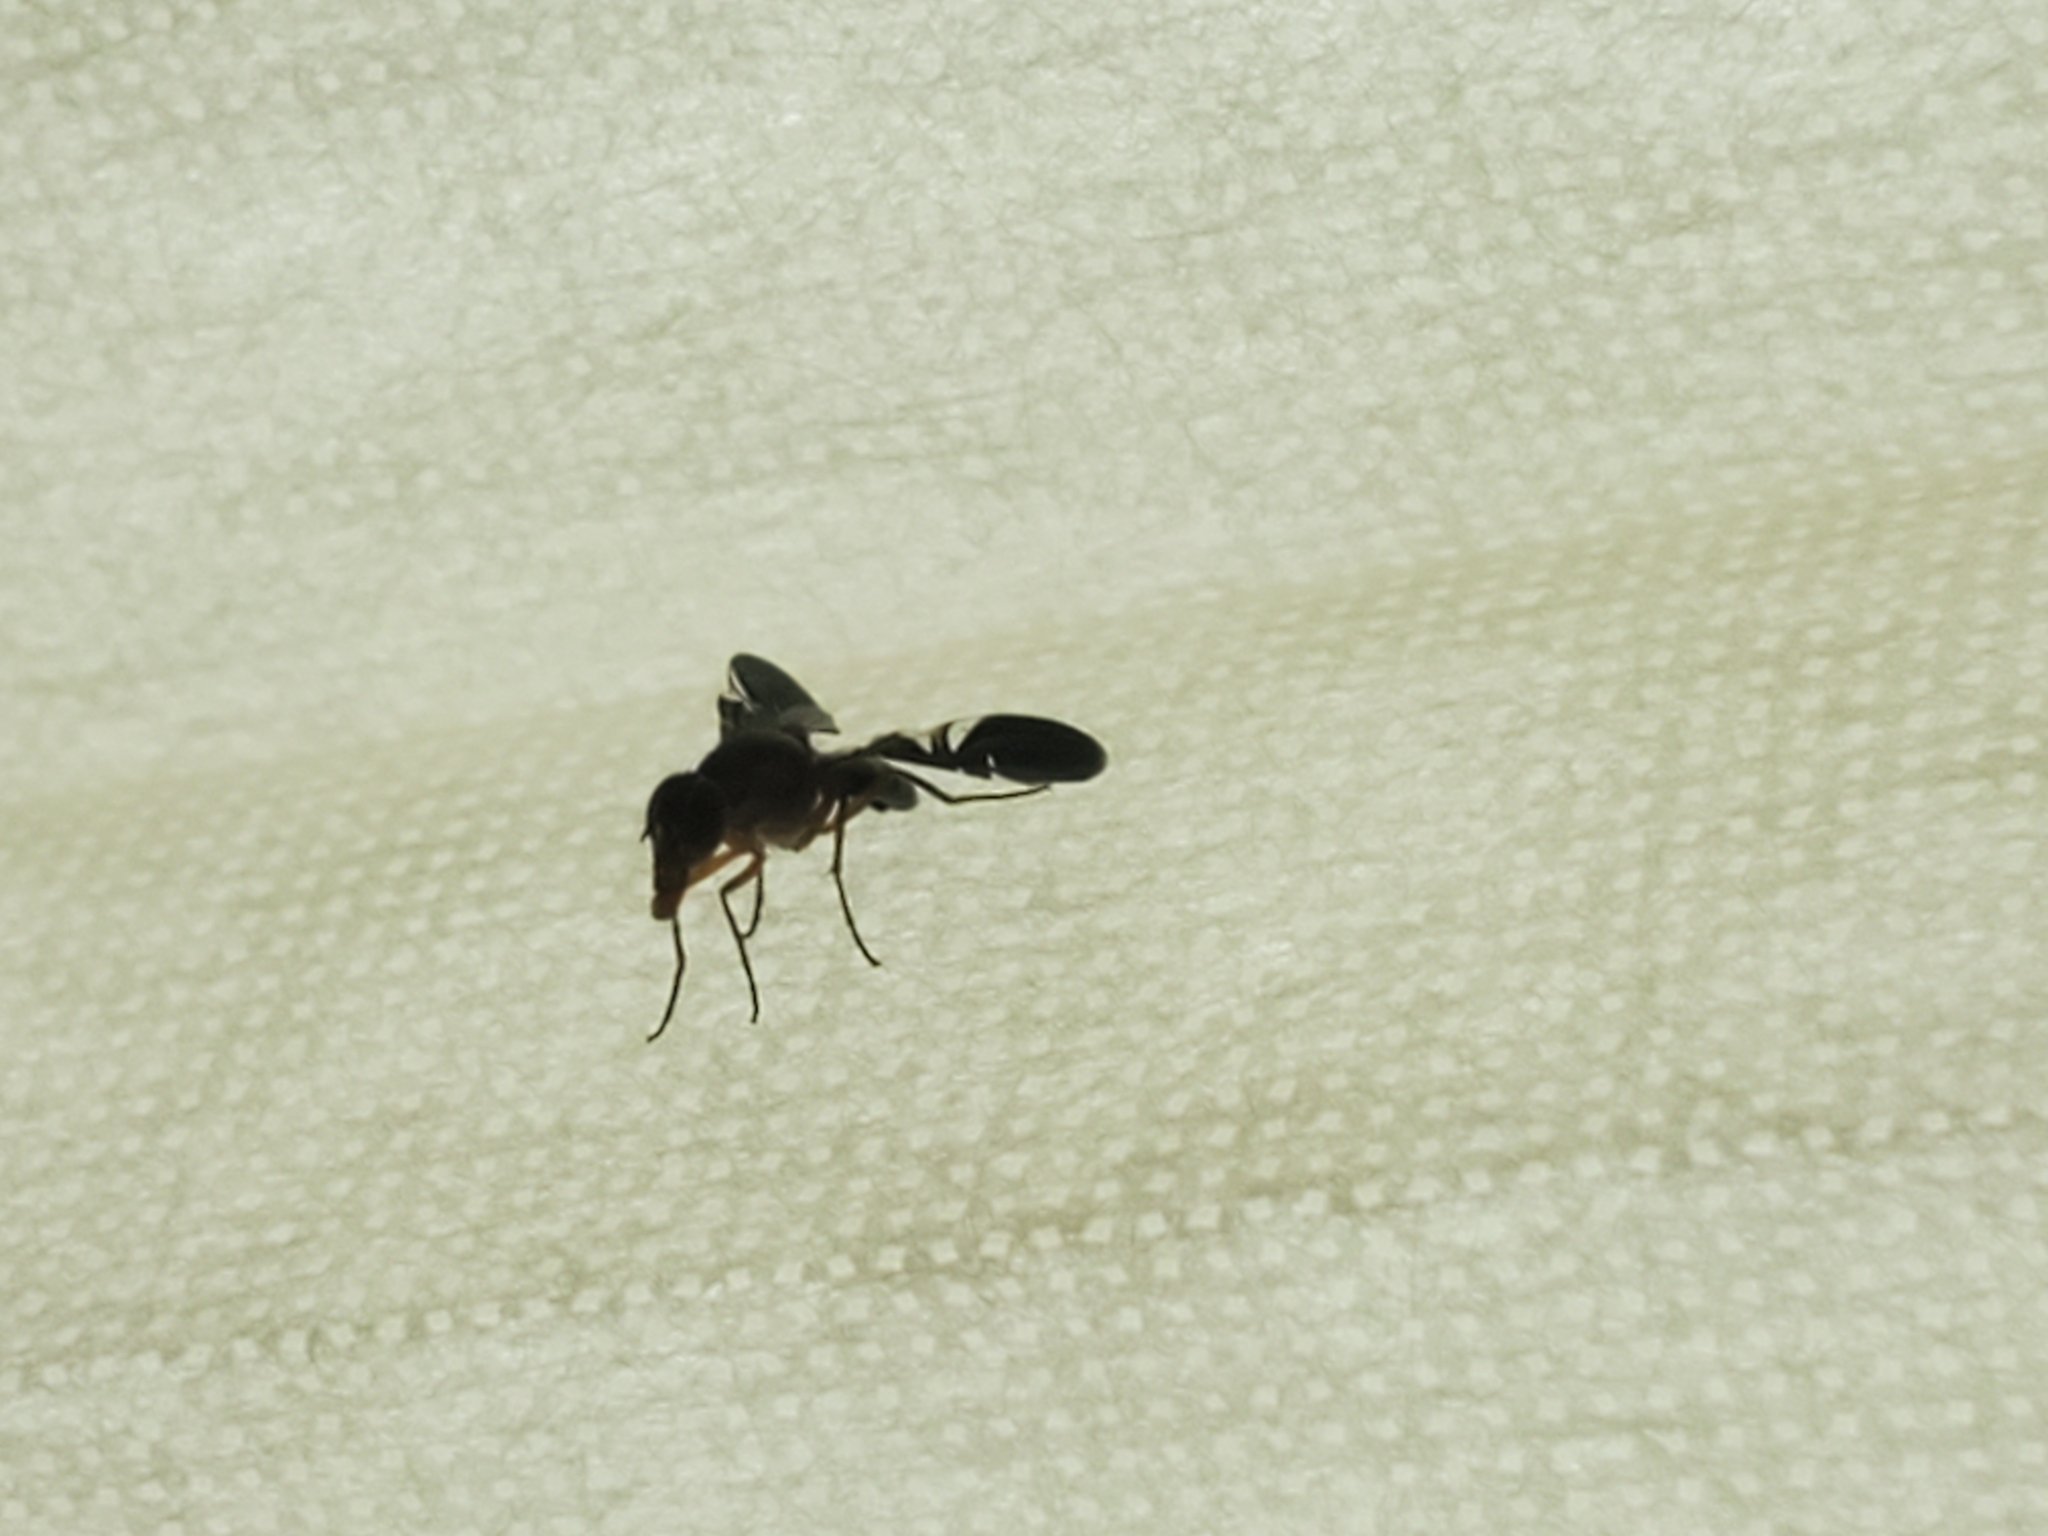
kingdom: Animalia
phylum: Arthropoda
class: Insecta
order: Diptera
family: Ulidiidae
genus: Delphinia
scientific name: Delphinia picta
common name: Common picture-winged fly
